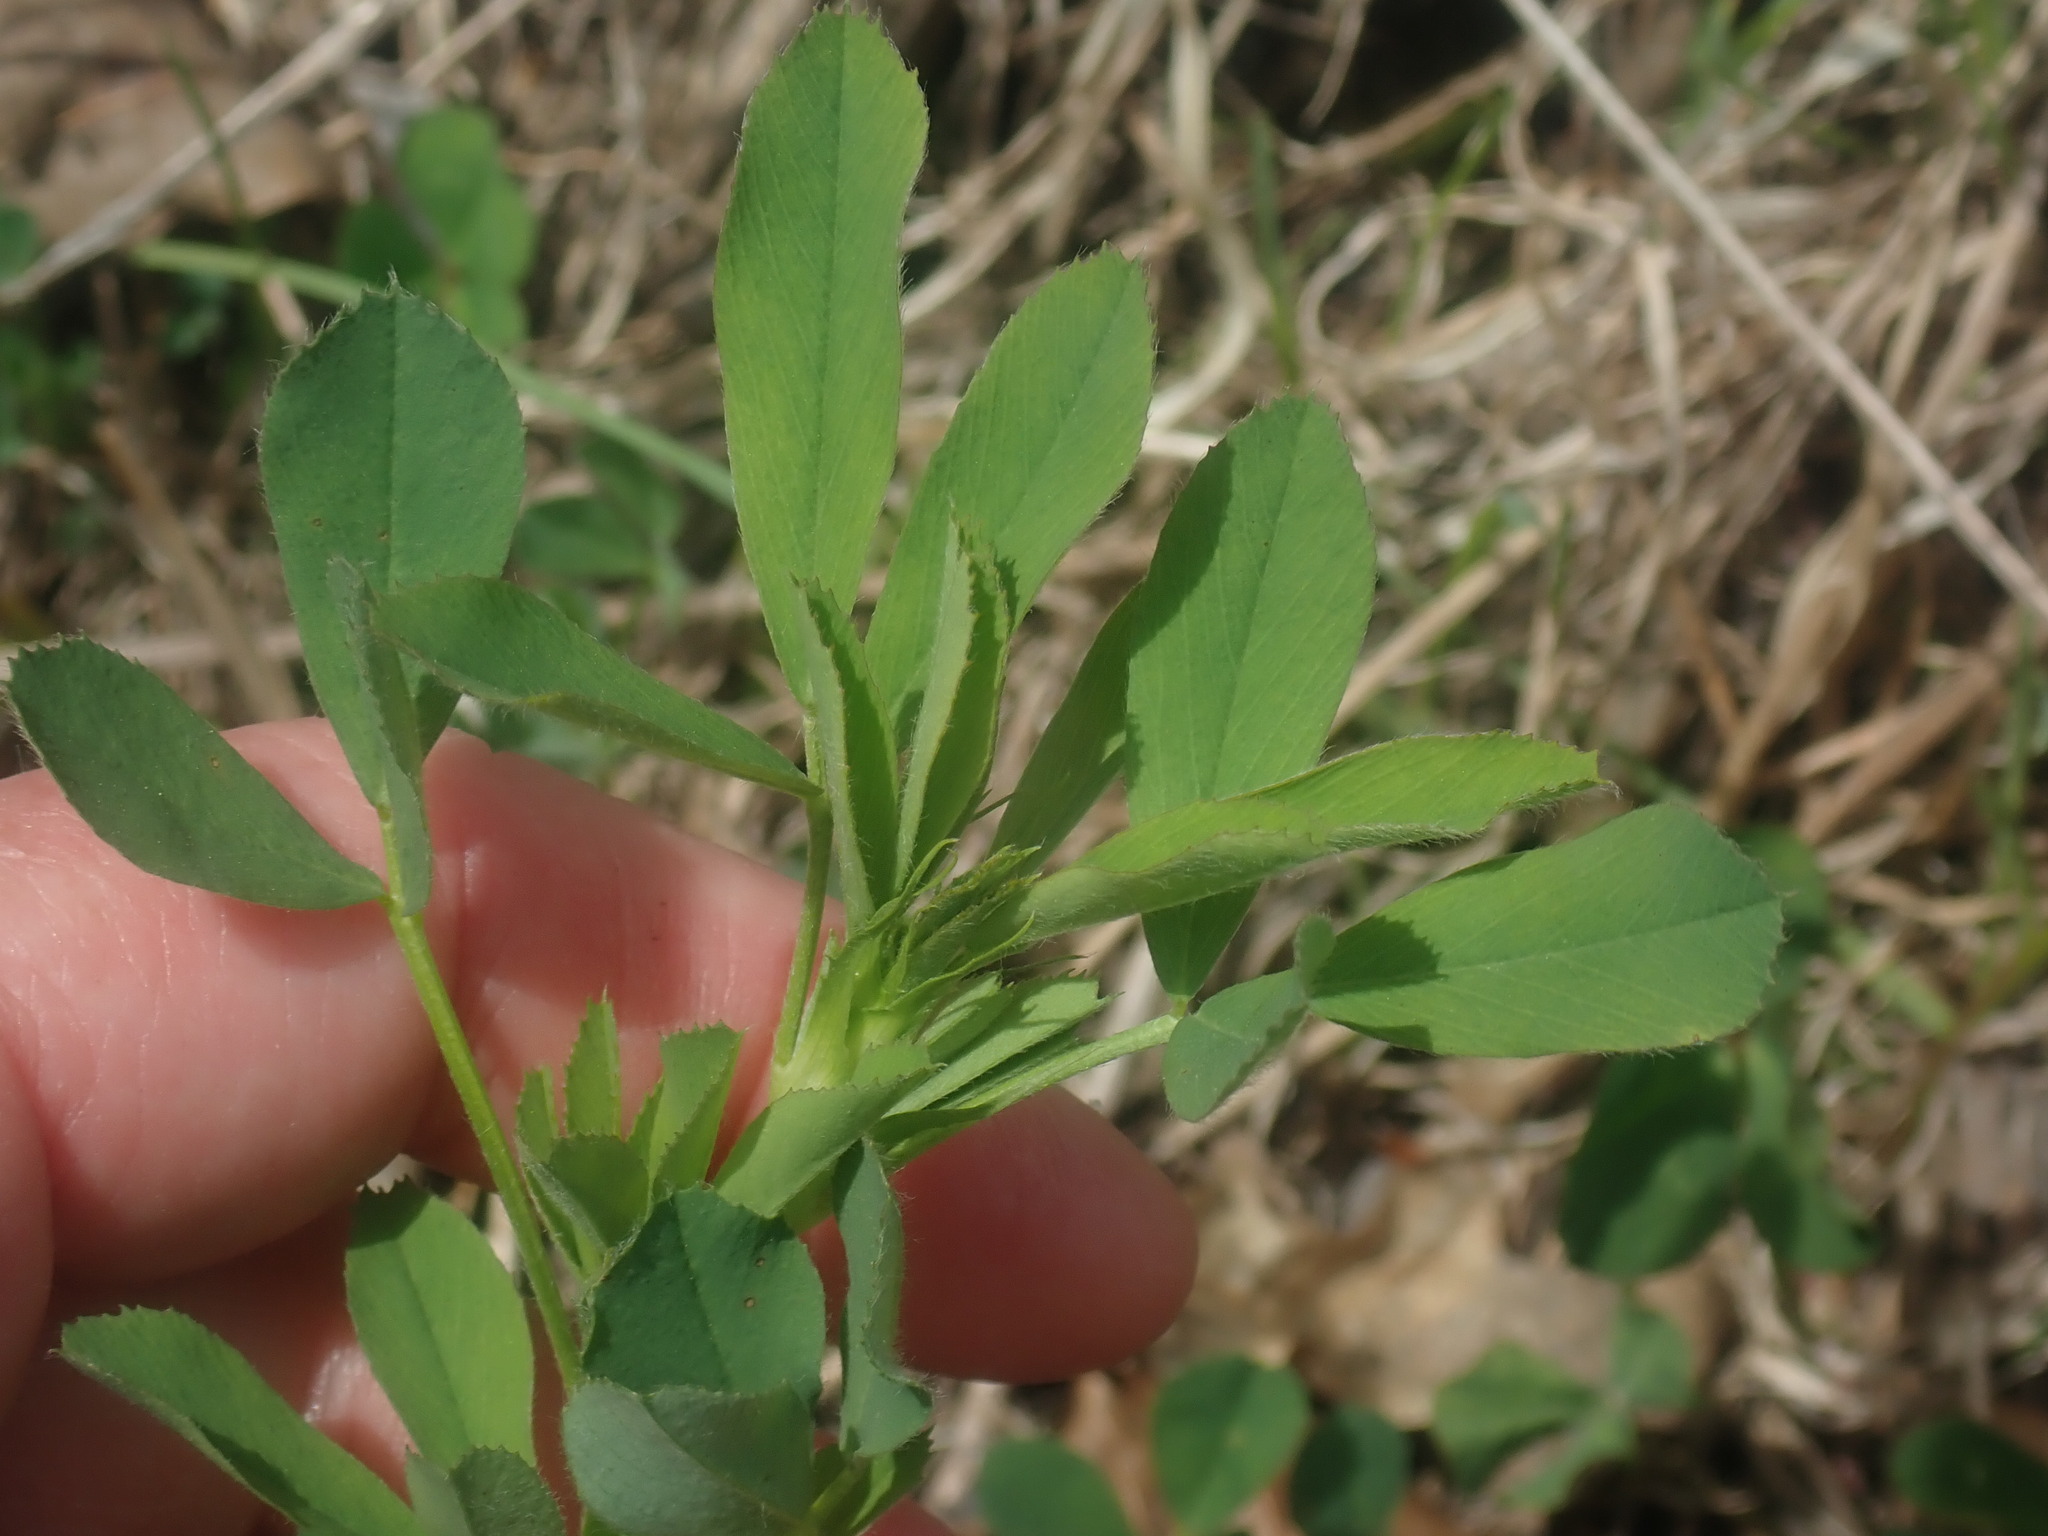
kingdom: Plantae
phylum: Tracheophyta
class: Magnoliopsida
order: Fabales
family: Fabaceae
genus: Melilotus
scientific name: Melilotus
